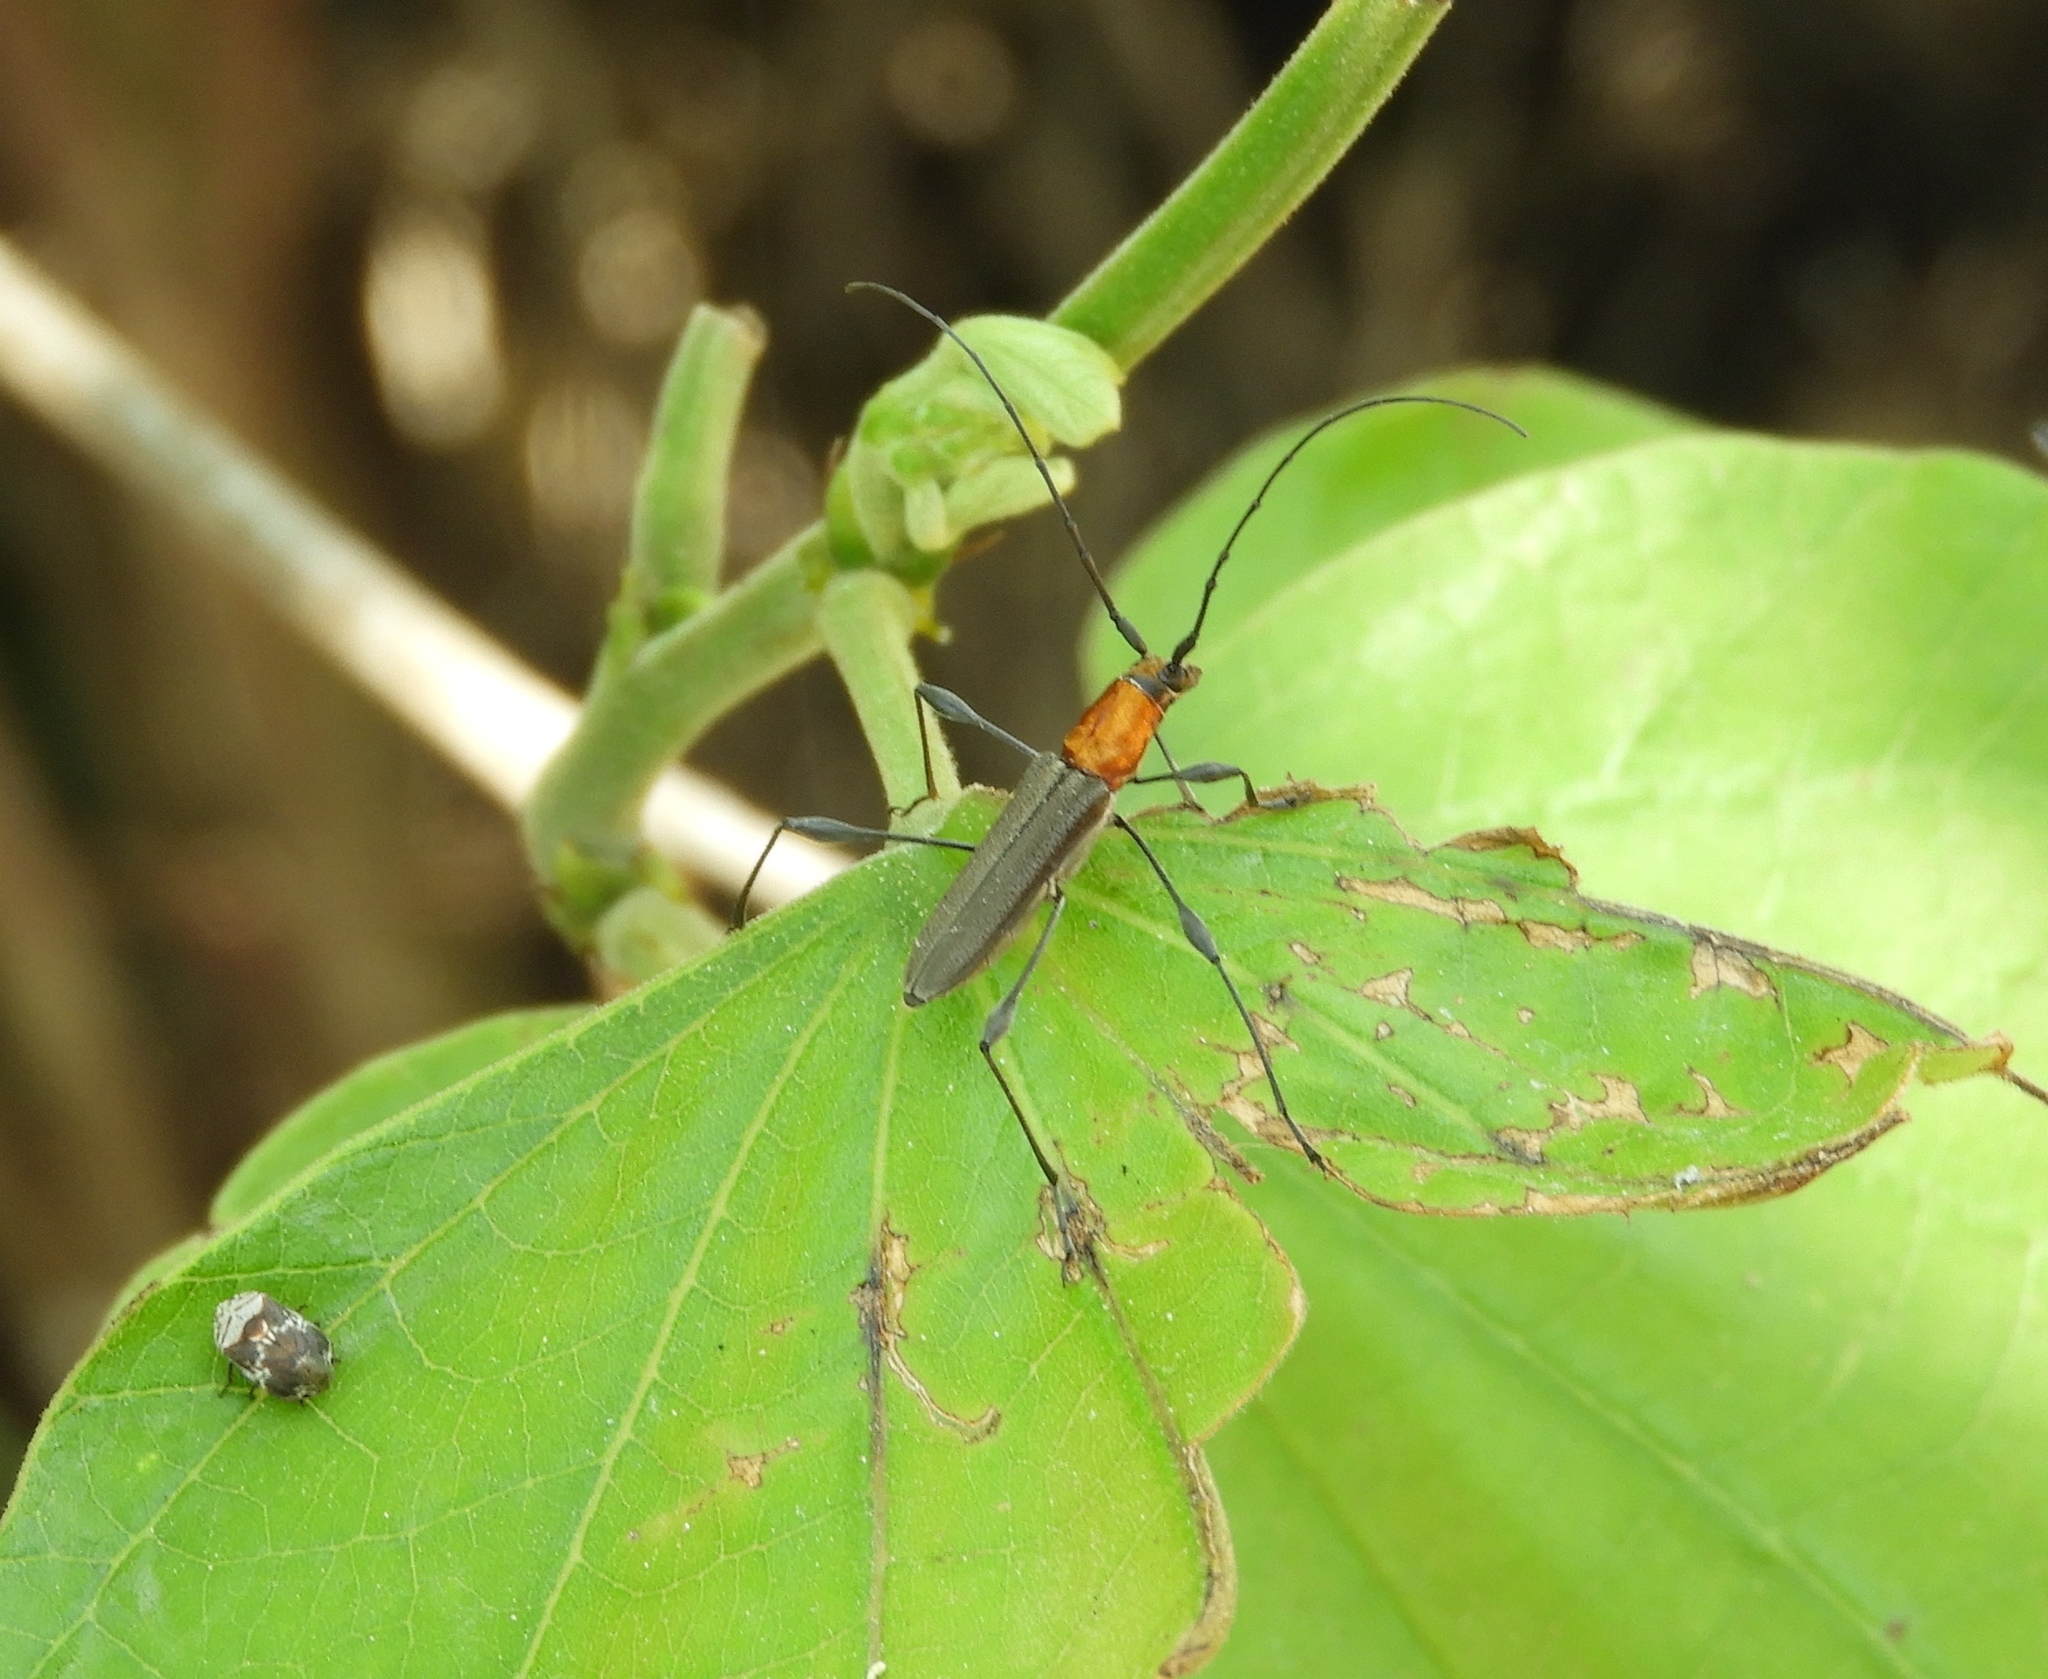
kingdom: Animalia
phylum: Arthropoda
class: Insecta
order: Coleoptera
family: Cerambycidae
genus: Rhopalophora
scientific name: Rhopalophora rugicollis
